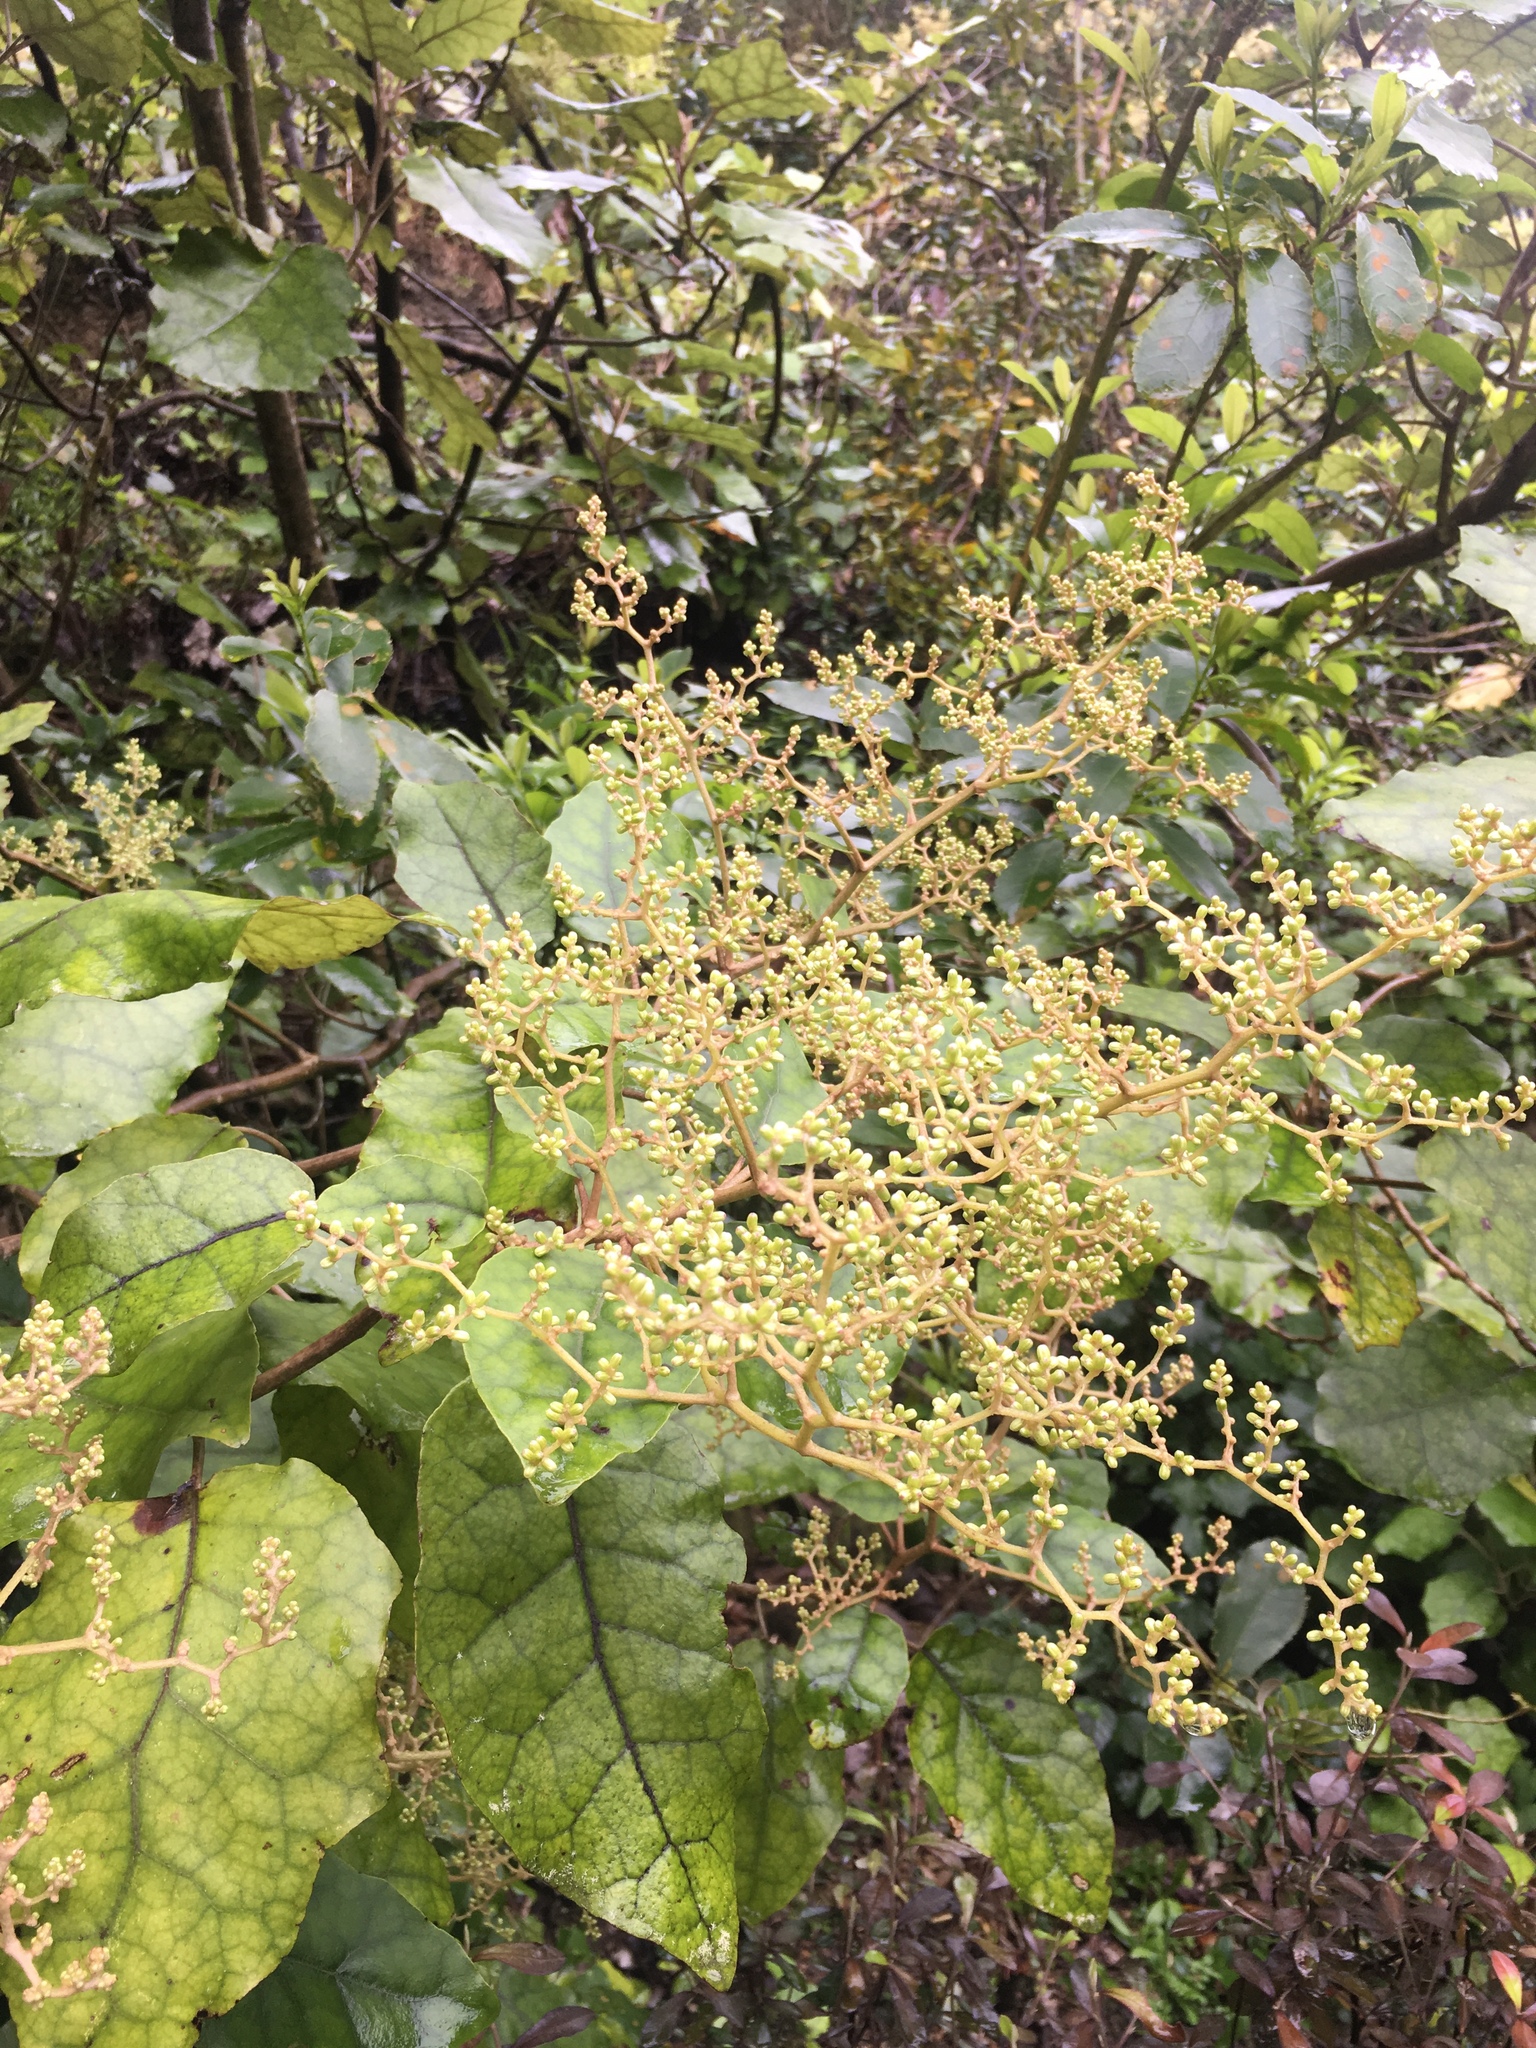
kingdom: Plantae
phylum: Tracheophyta
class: Magnoliopsida
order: Asterales
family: Asteraceae
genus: Brachyglottis
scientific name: Brachyglottis repanda
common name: Hedge ragwort
